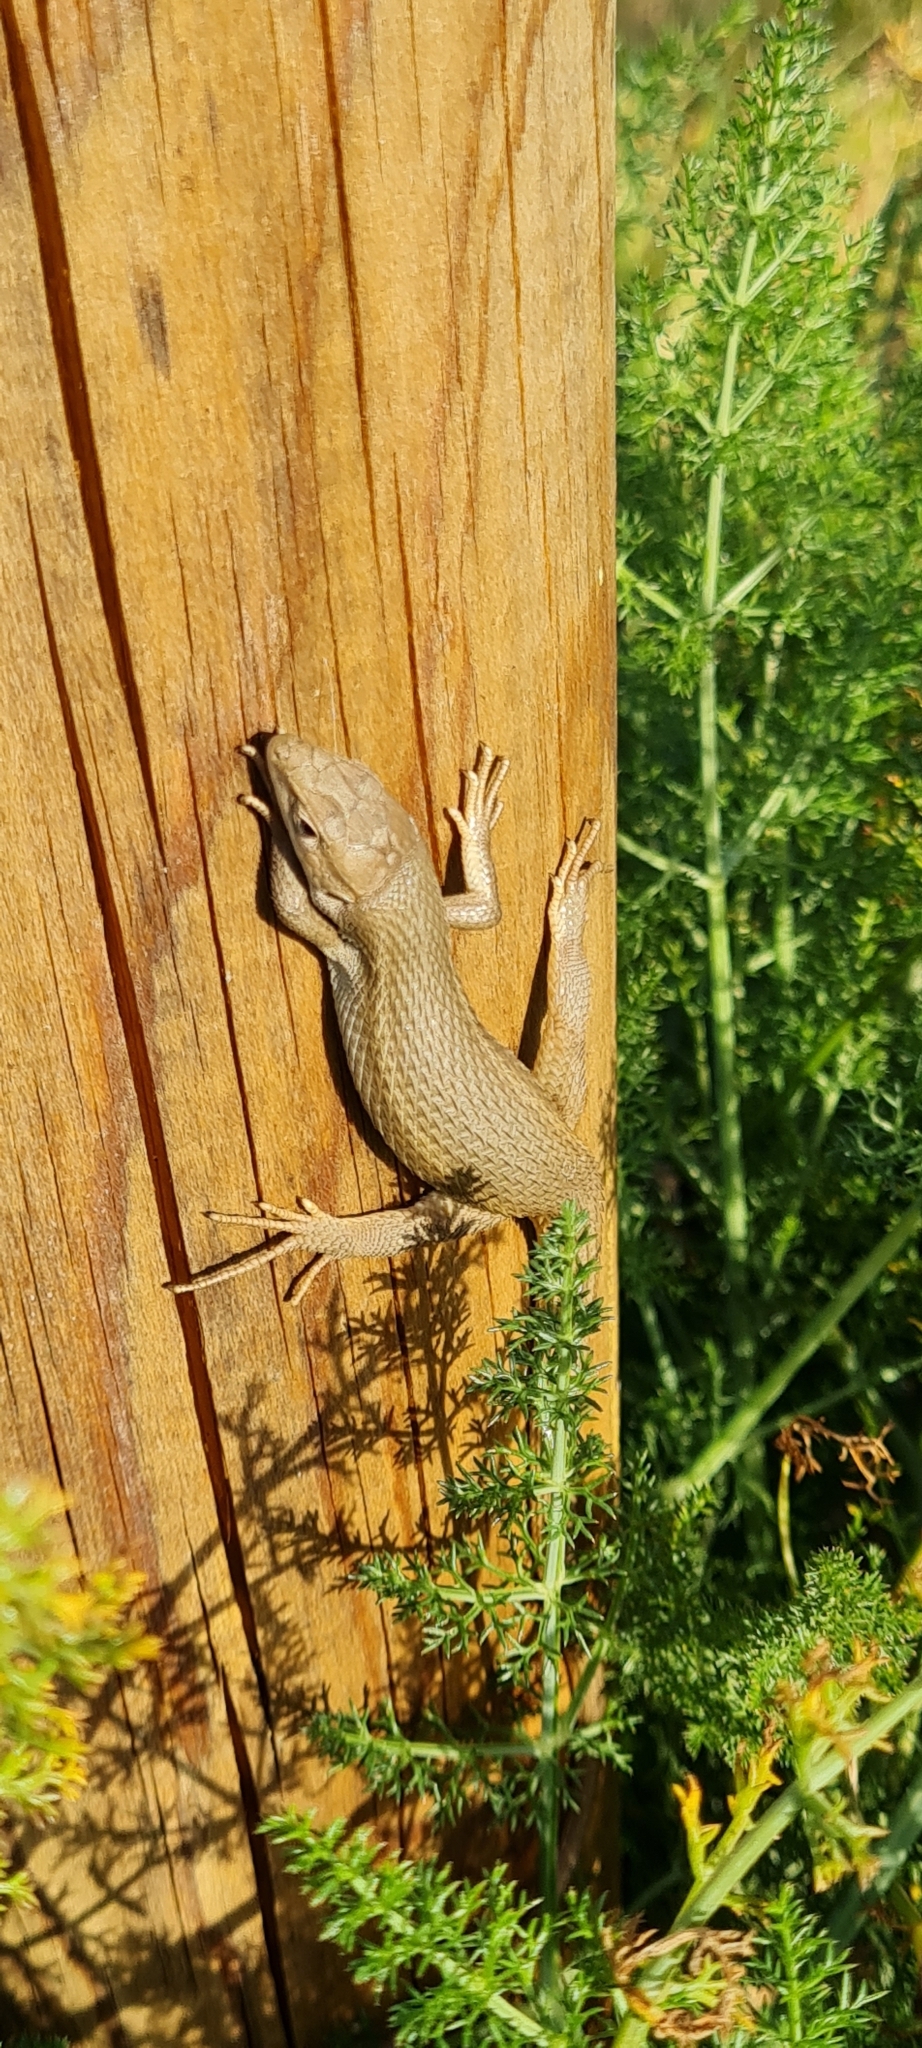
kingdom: Animalia
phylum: Chordata
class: Squamata
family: Lacertidae
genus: Psammodromus
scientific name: Psammodromus algirus
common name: Algerian psammodromus
